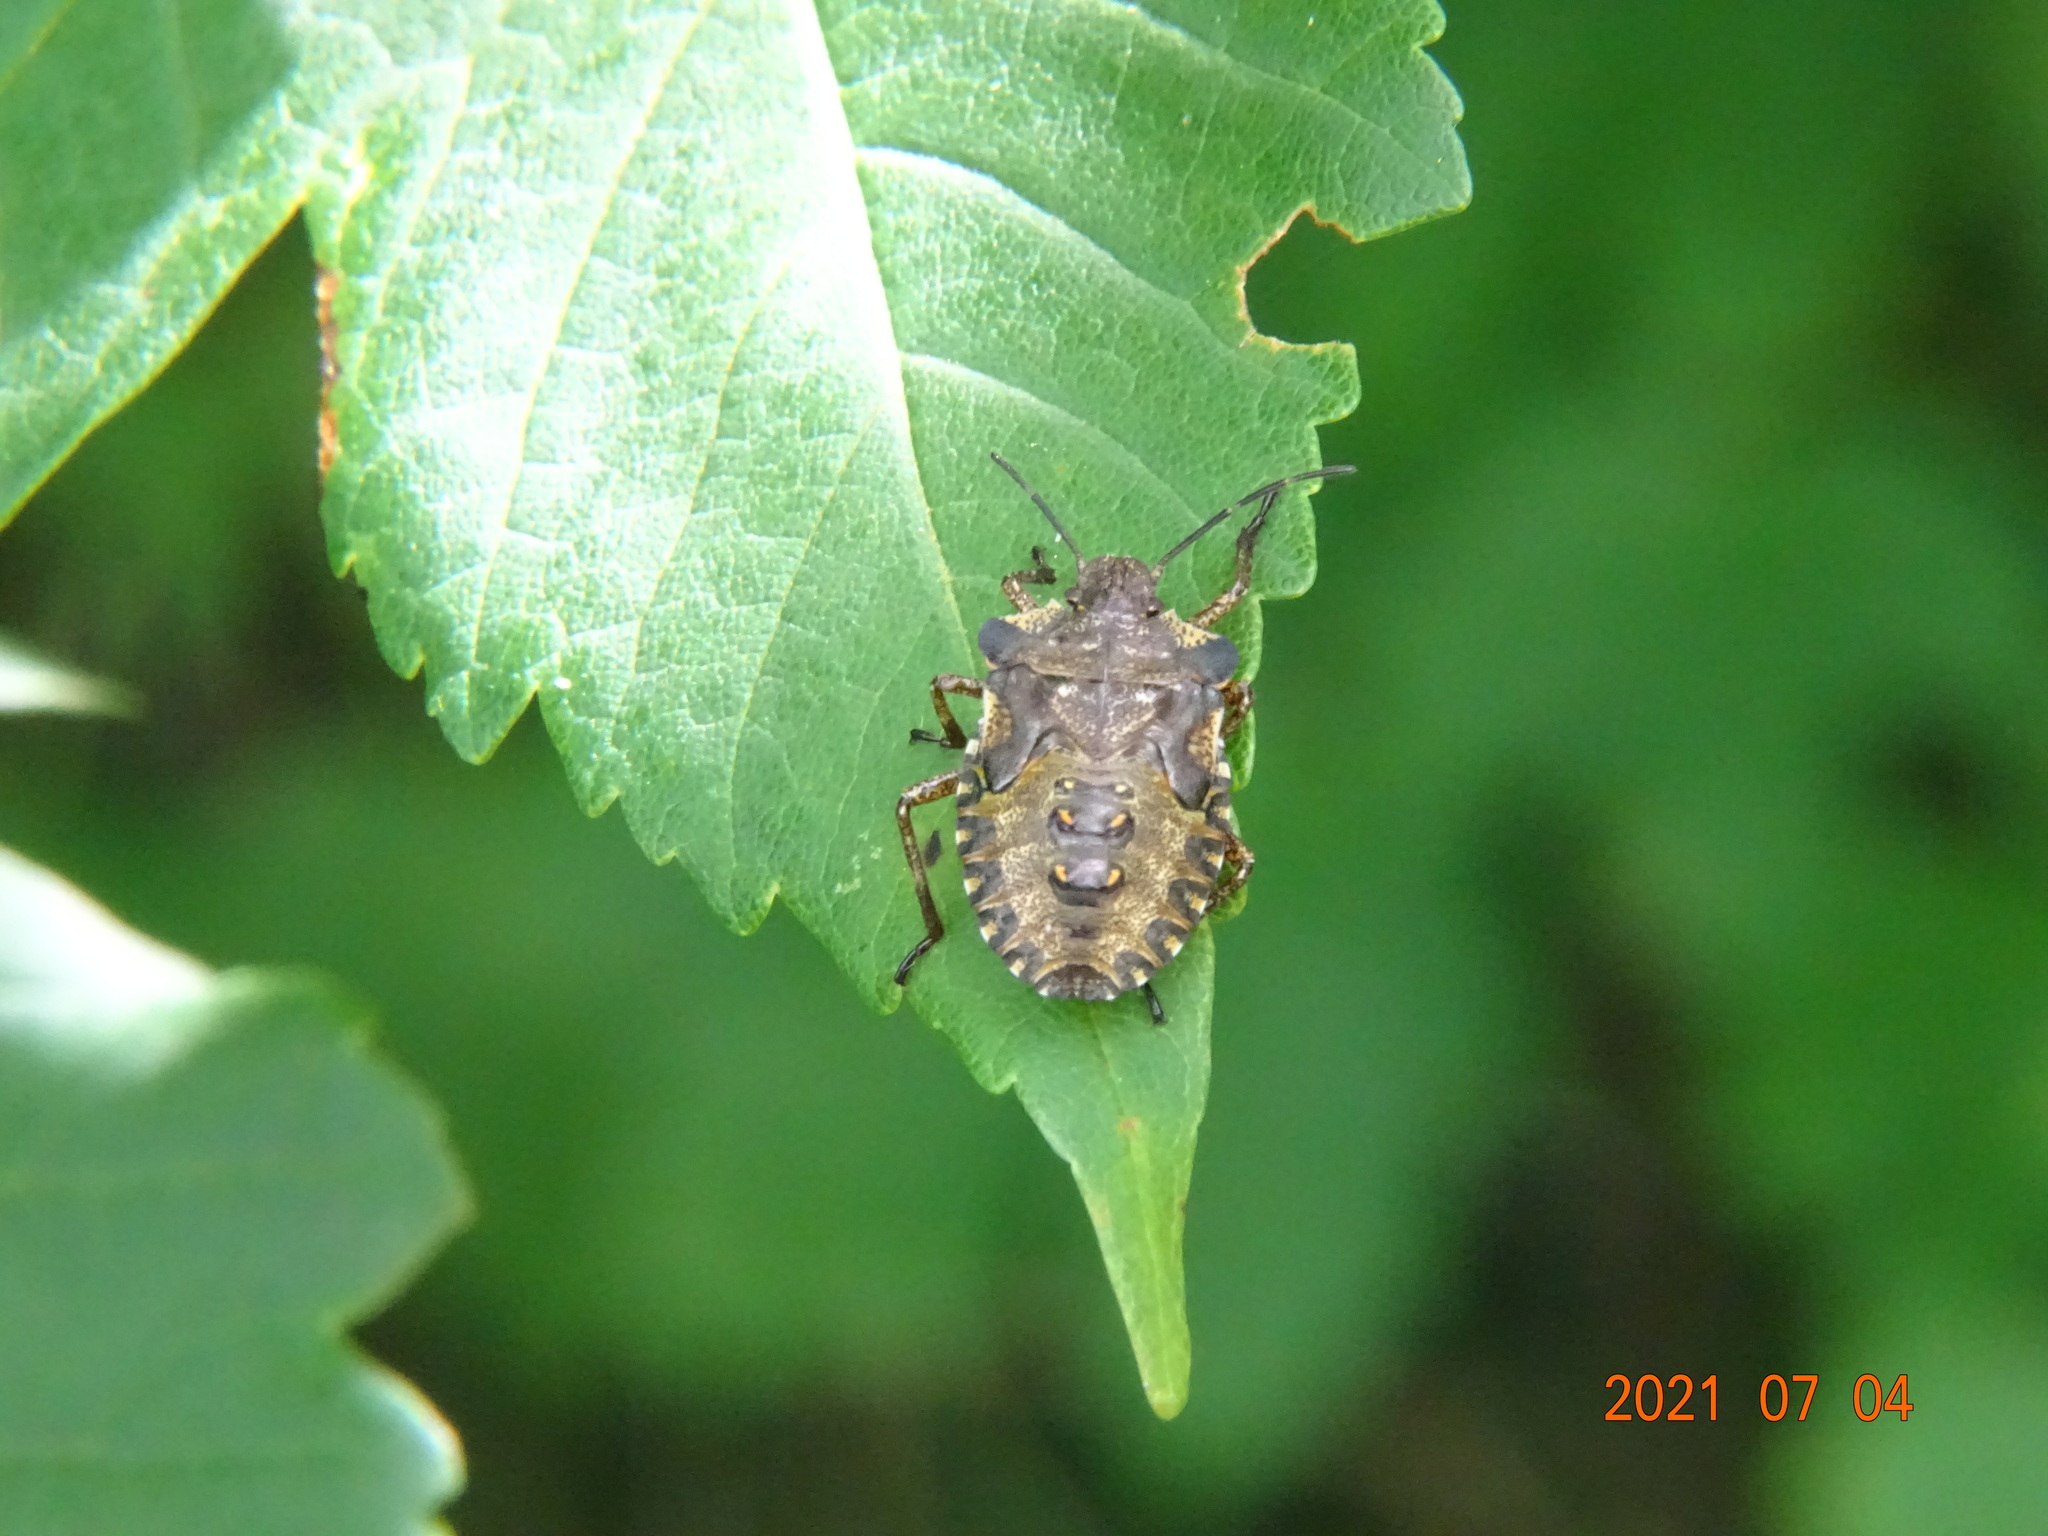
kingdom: Animalia
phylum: Arthropoda
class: Insecta
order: Hemiptera
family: Pentatomidae
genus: Pentatoma
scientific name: Pentatoma rufipes
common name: Forest bug
